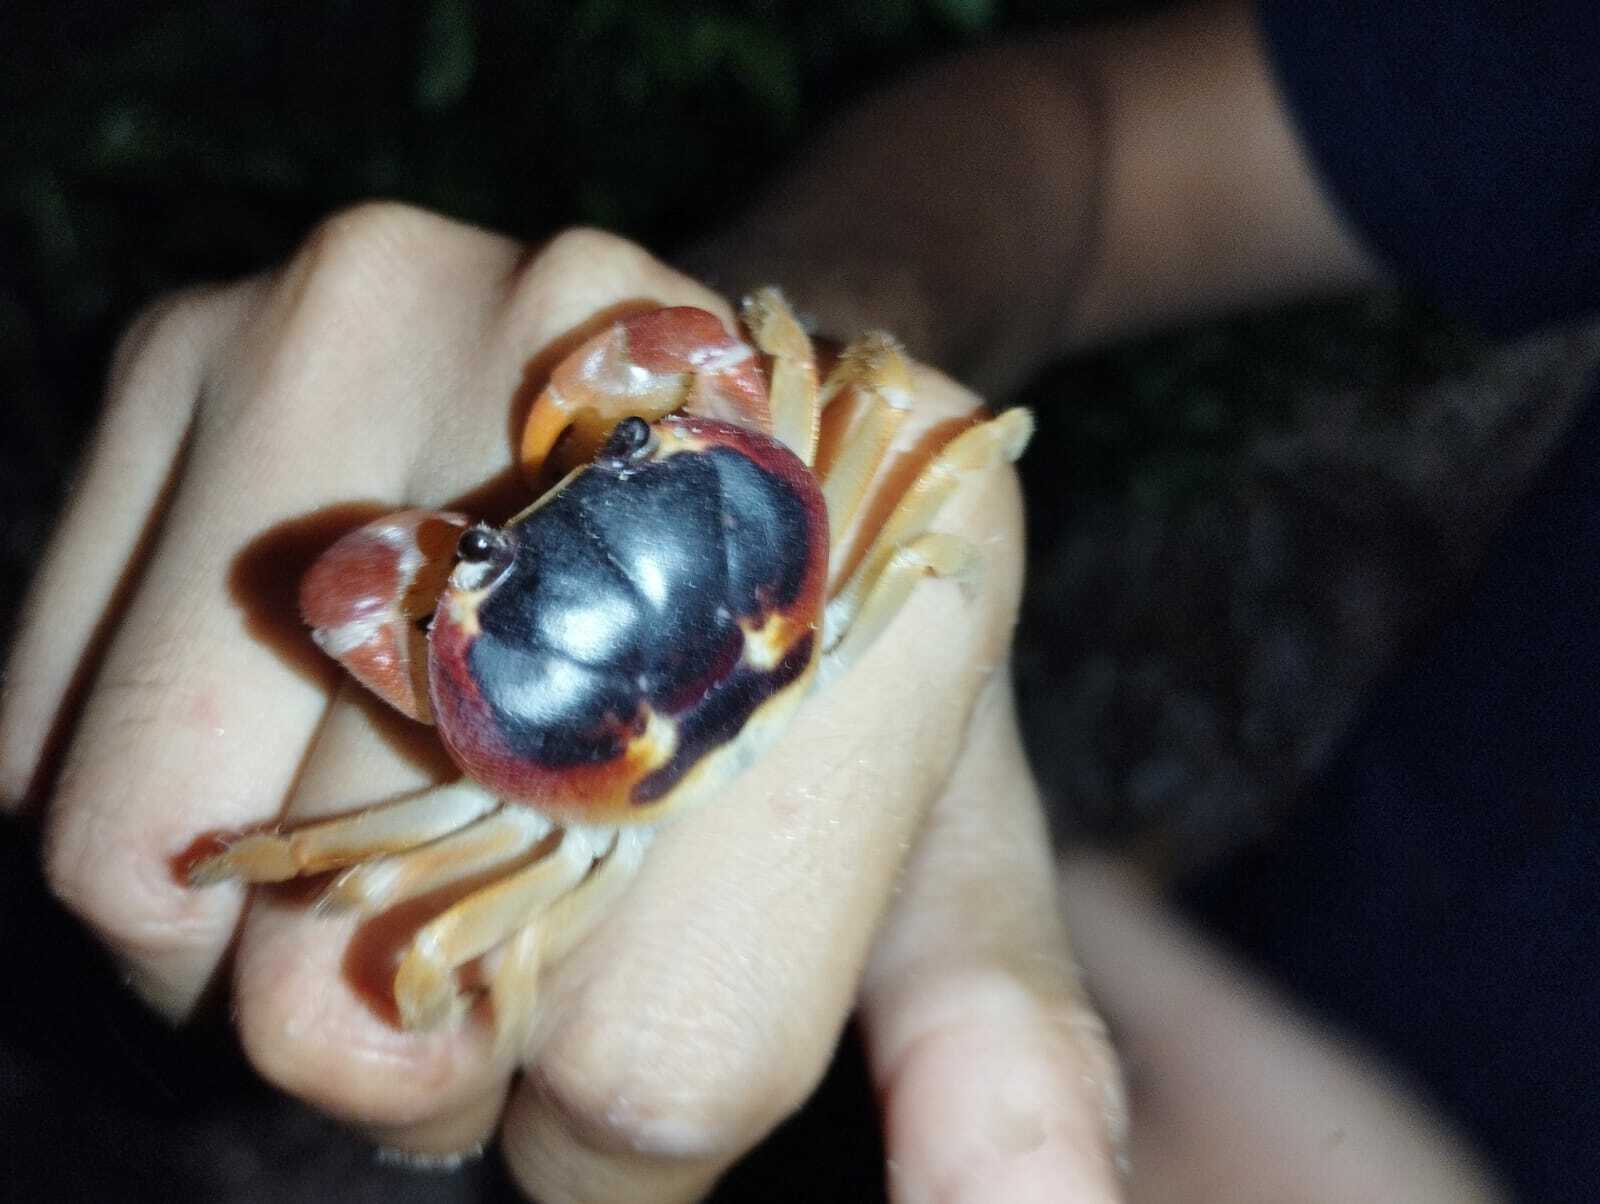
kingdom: Animalia
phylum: Arthropoda
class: Malacostraca
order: Decapoda
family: Gecarcinidae
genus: Gecarcinus
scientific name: Gecarcinus lateralis
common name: Bermuda land crab
